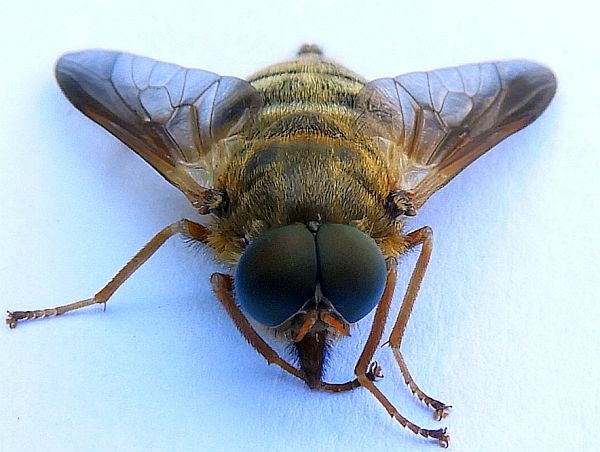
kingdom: Animalia
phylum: Arthropoda
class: Insecta
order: Diptera
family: Tabanidae
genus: Goniops
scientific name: Goniops chrysocoma
